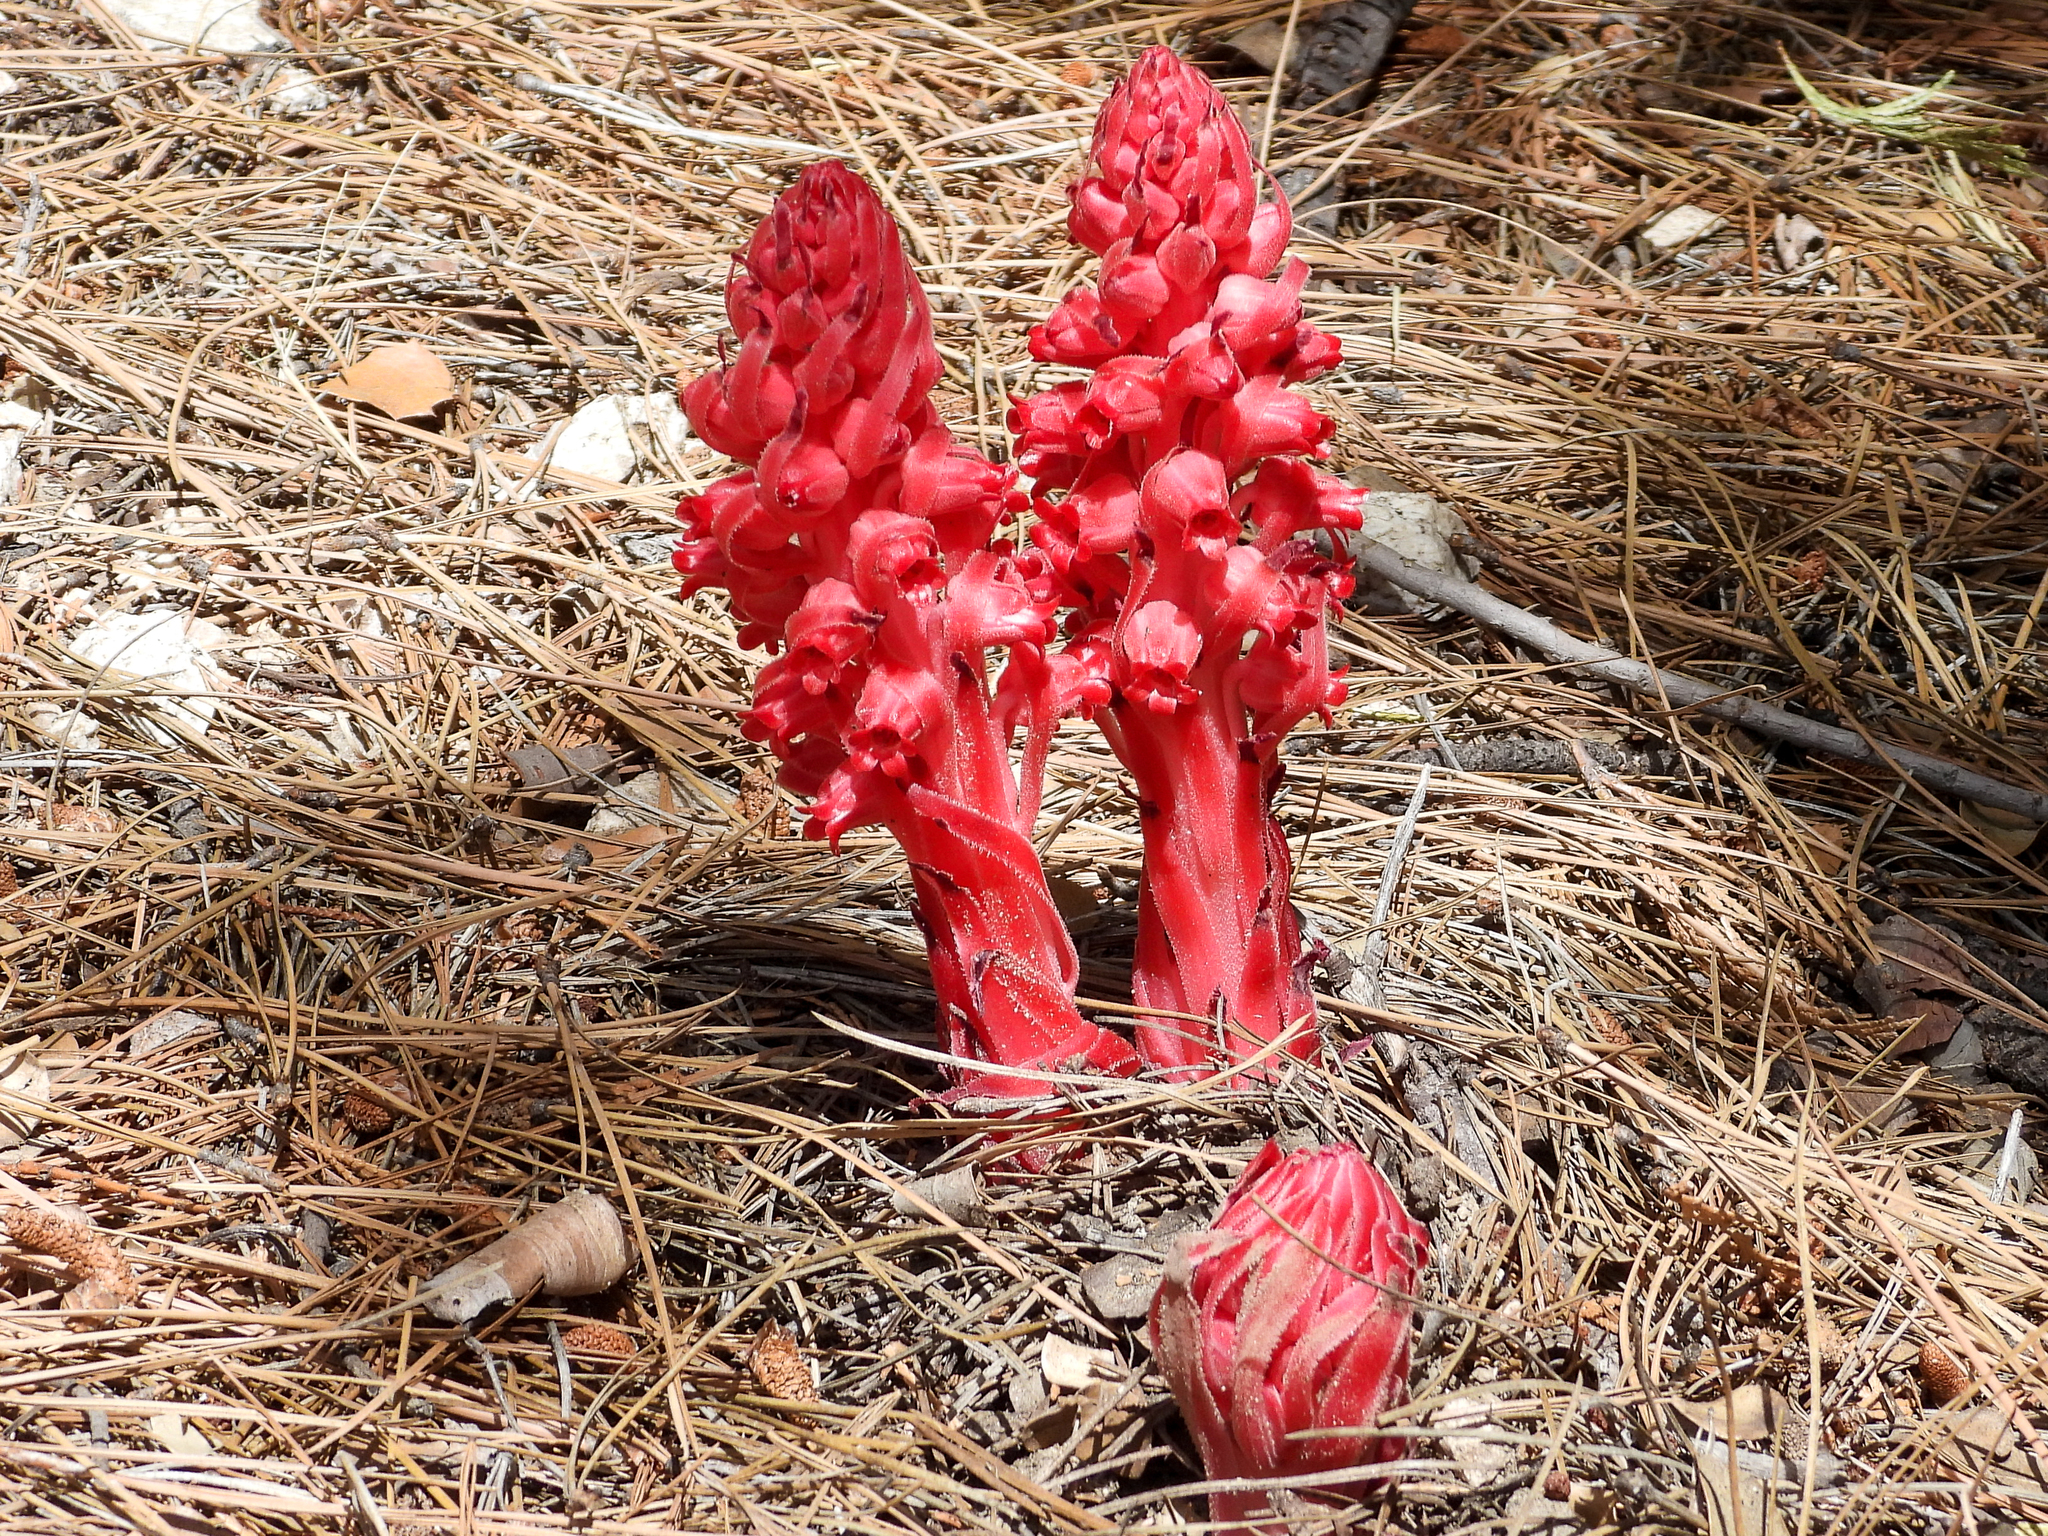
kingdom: Plantae
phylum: Tracheophyta
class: Magnoliopsida
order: Ericales
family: Ericaceae
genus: Sarcodes
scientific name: Sarcodes sanguinea
